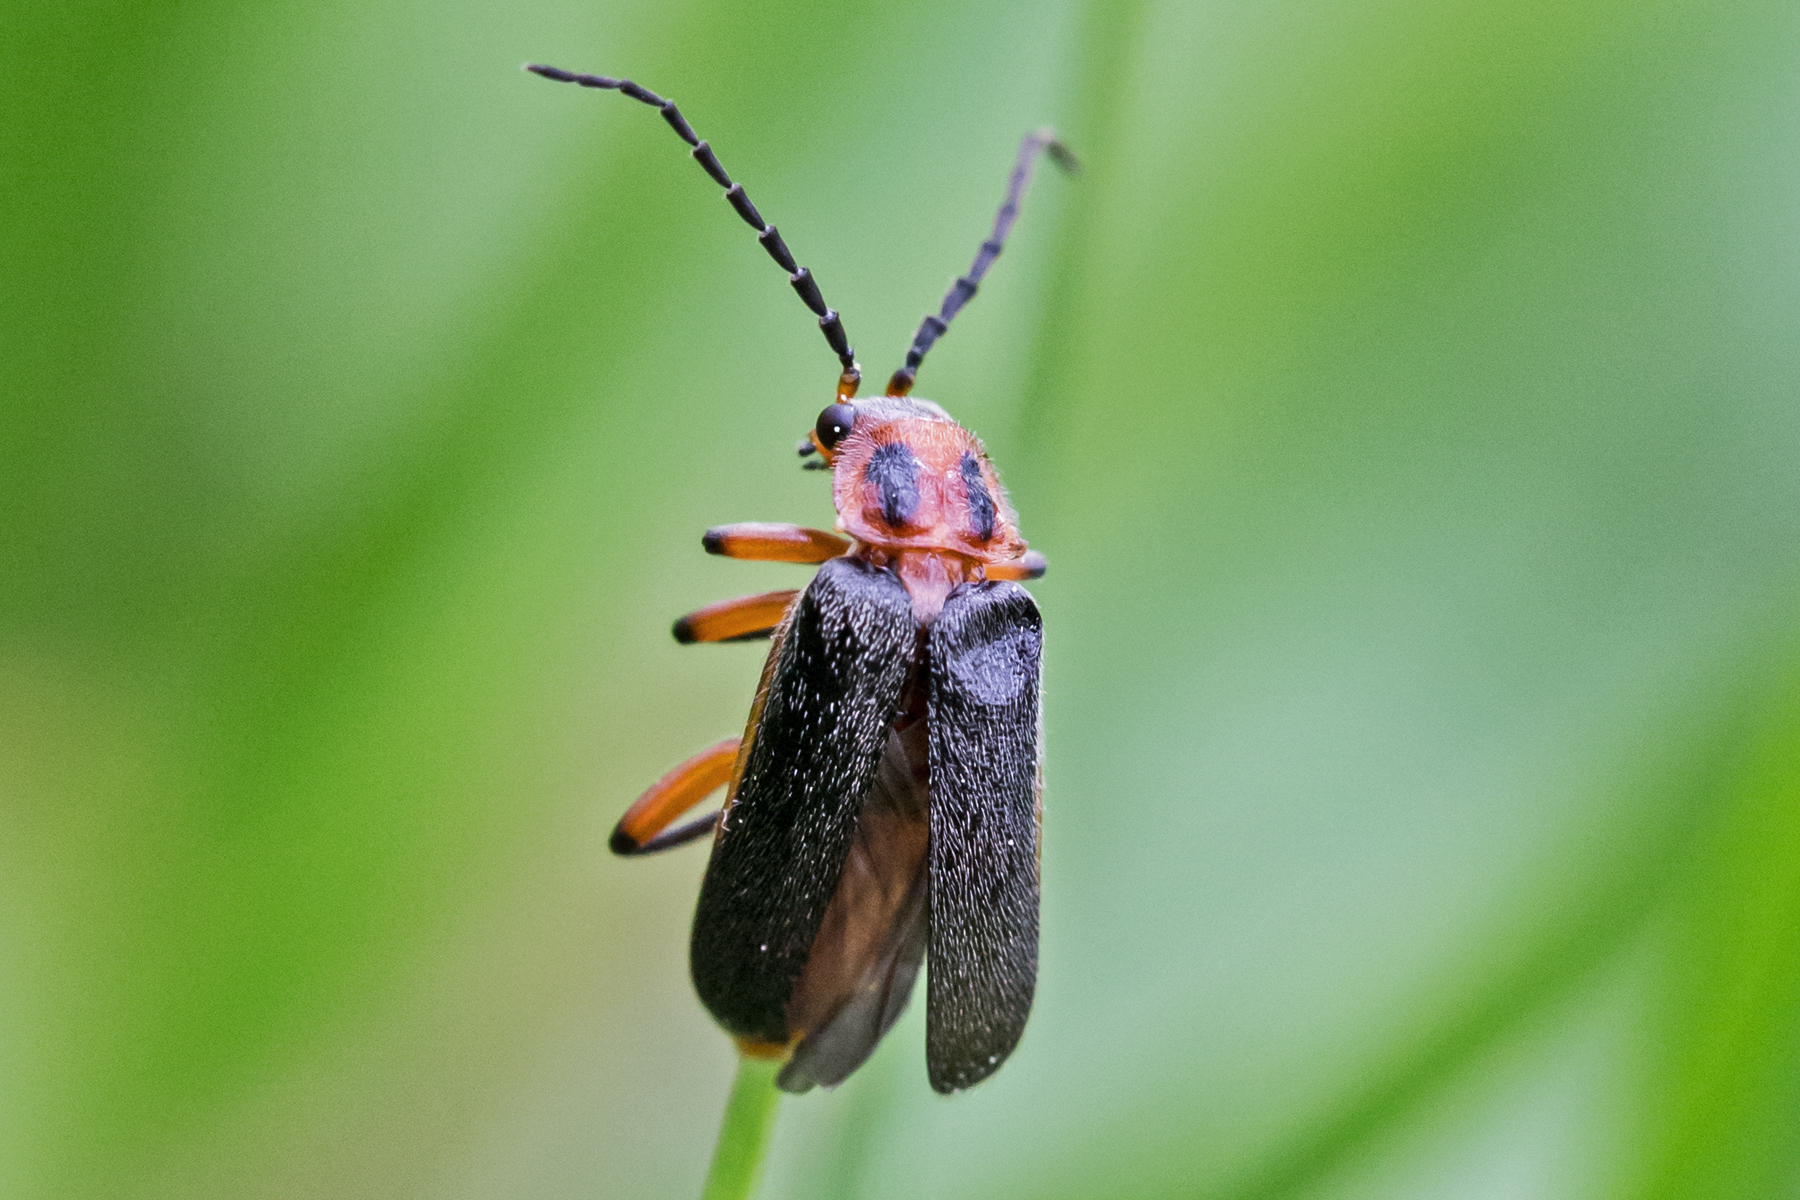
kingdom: Animalia
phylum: Arthropoda
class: Insecta
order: Coleoptera
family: Cantharidae
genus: Atalantycha
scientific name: Atalantycha bilineata
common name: Two-lined leatherwing
